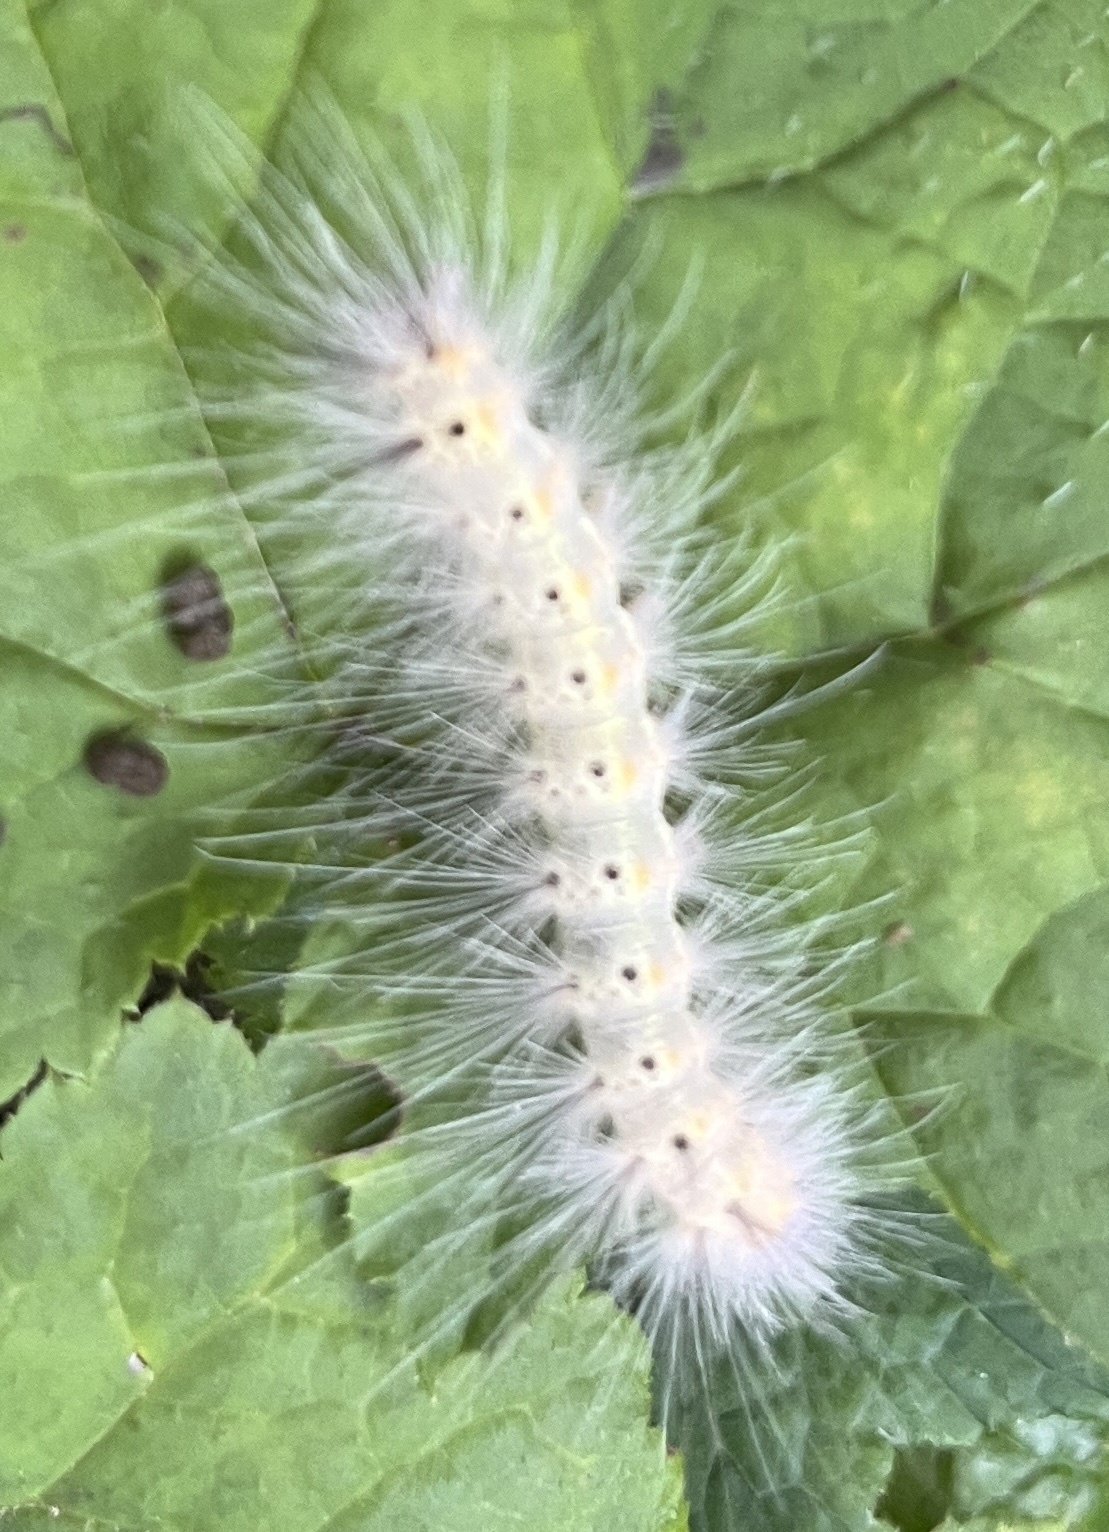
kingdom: Animalia
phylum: Arthropoda
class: Insecta
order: Lepidoptera
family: Erebidae
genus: Hyphantria
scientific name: Hyphantria cunea
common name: American white moth
